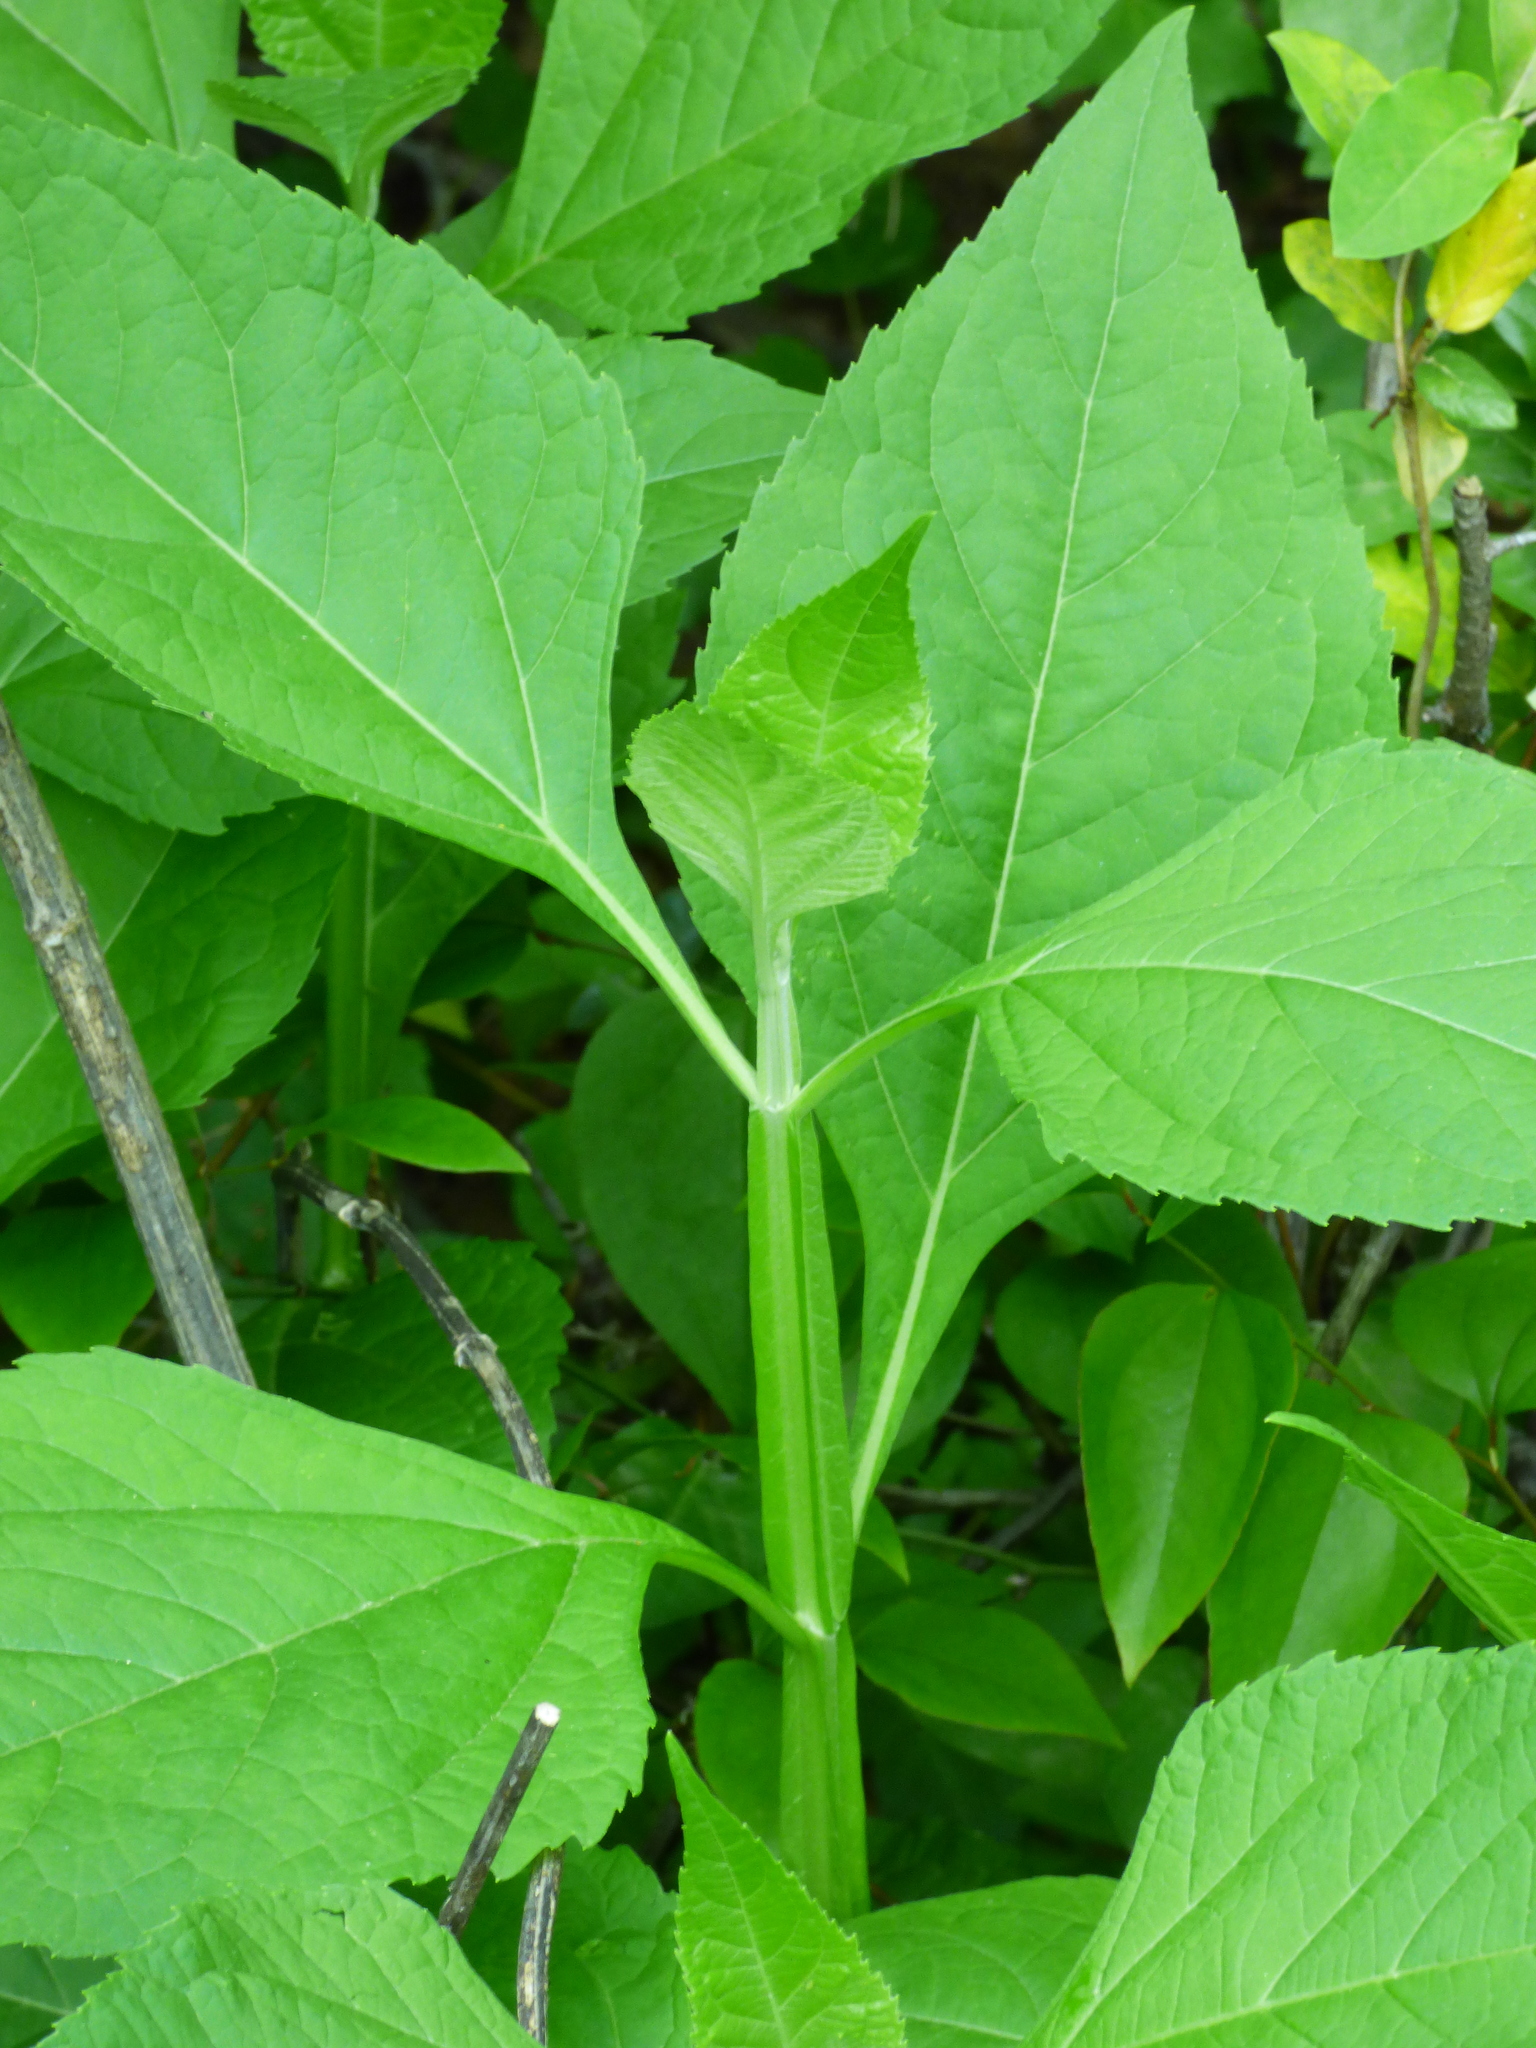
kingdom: Plantae
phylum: Tracheophyta
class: Magnoliopsida
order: Asterales
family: Asteraceae
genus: Verbesina
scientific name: Verbesina occidentalis
